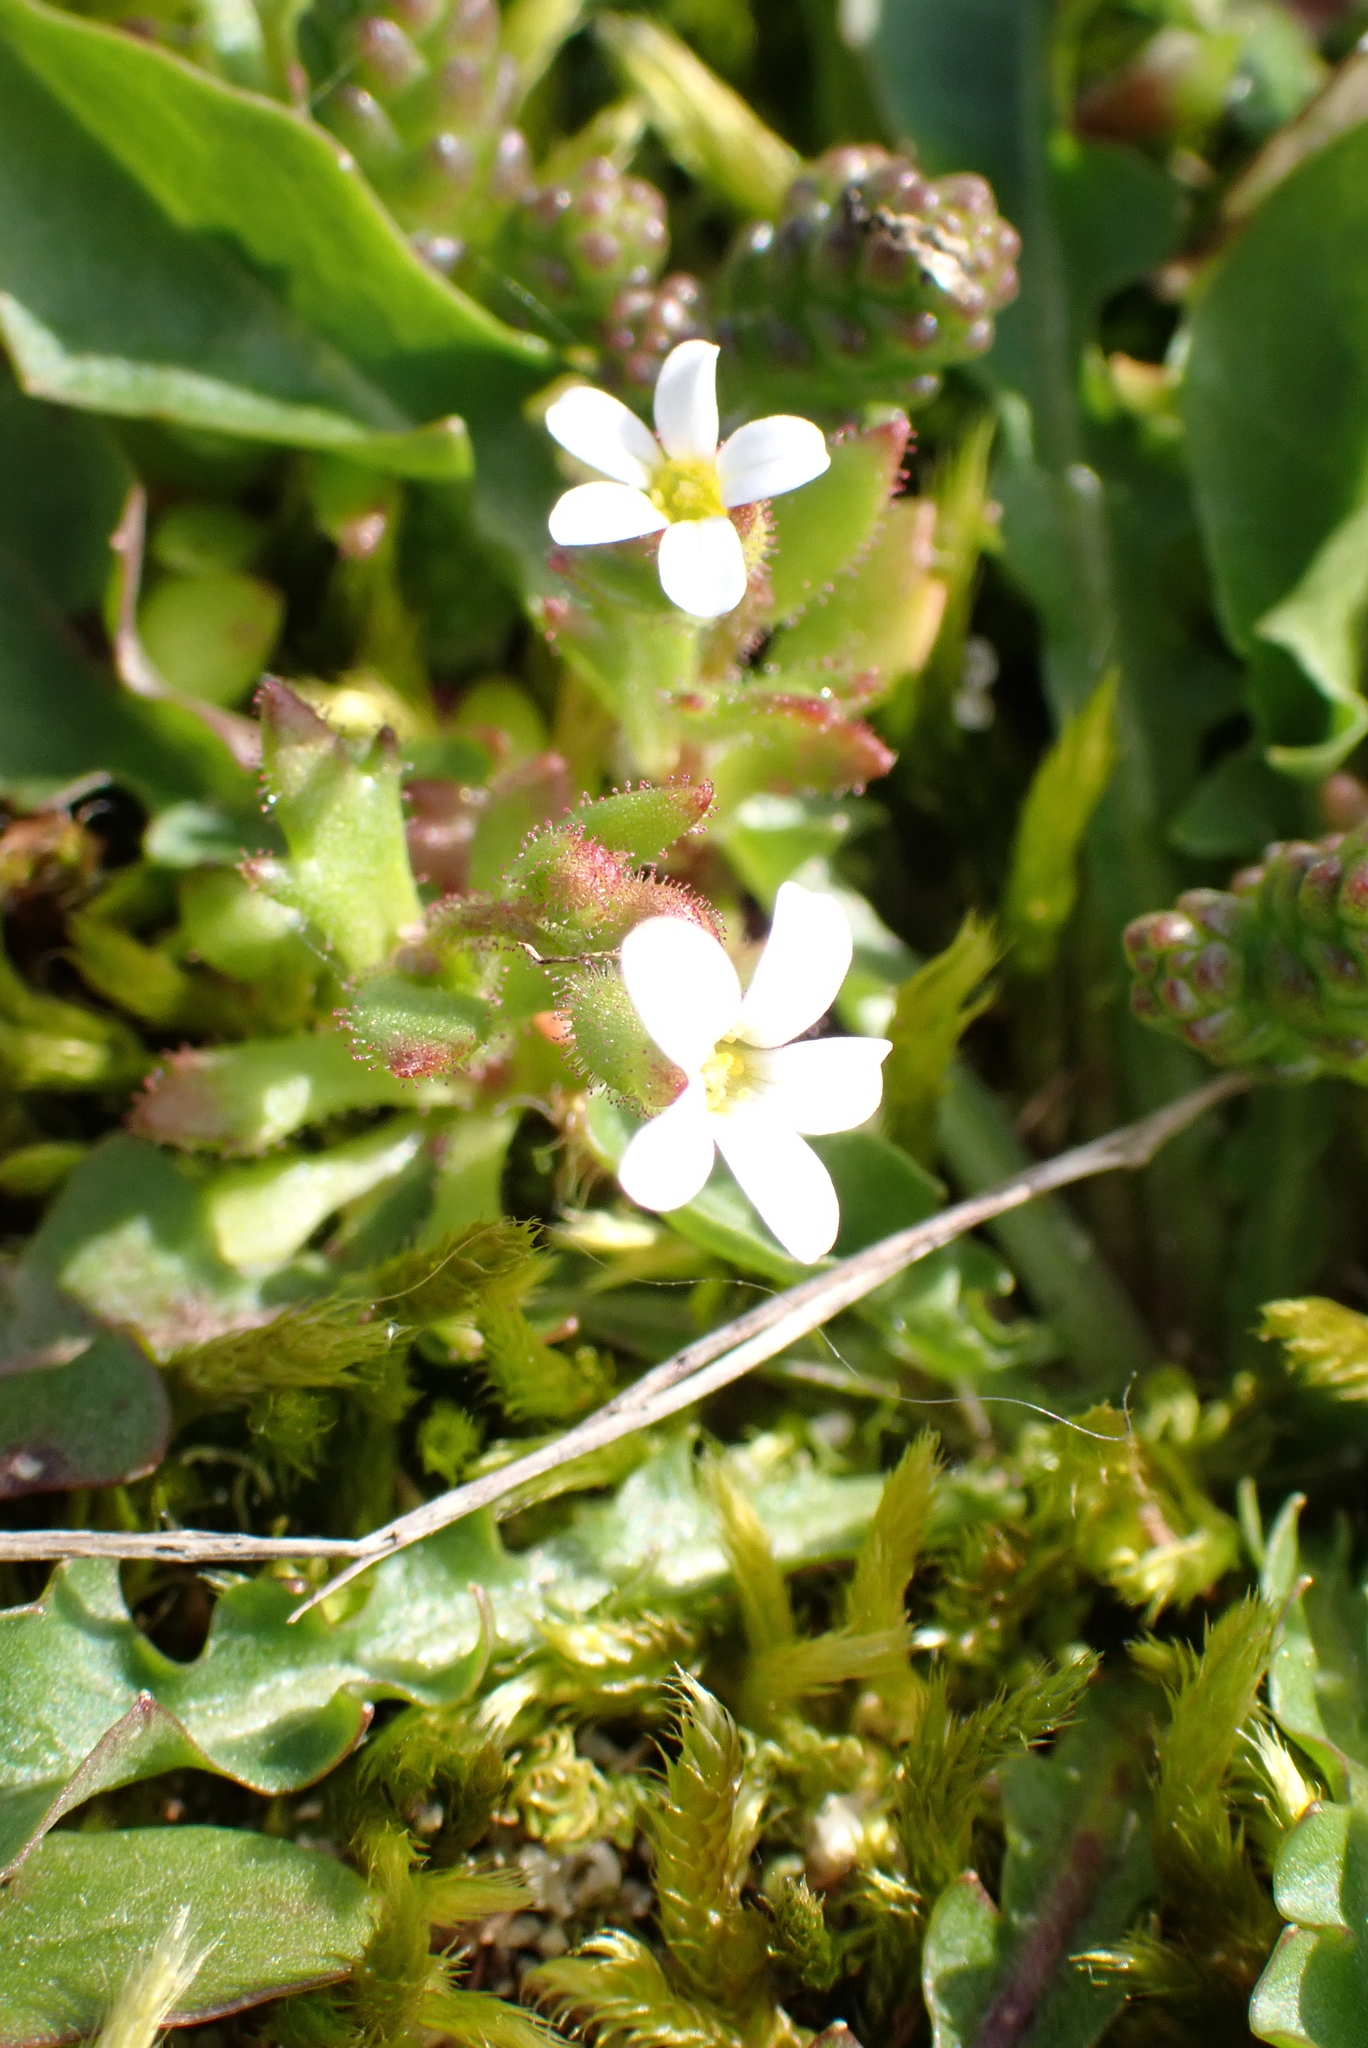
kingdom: Plantae
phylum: Tracheophyta
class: Magnoliopsida
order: Saxifragales
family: Saxifragaceae
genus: Saxifraga
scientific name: Saxifraga tridactylites
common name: Rue-leaved saxifrage
